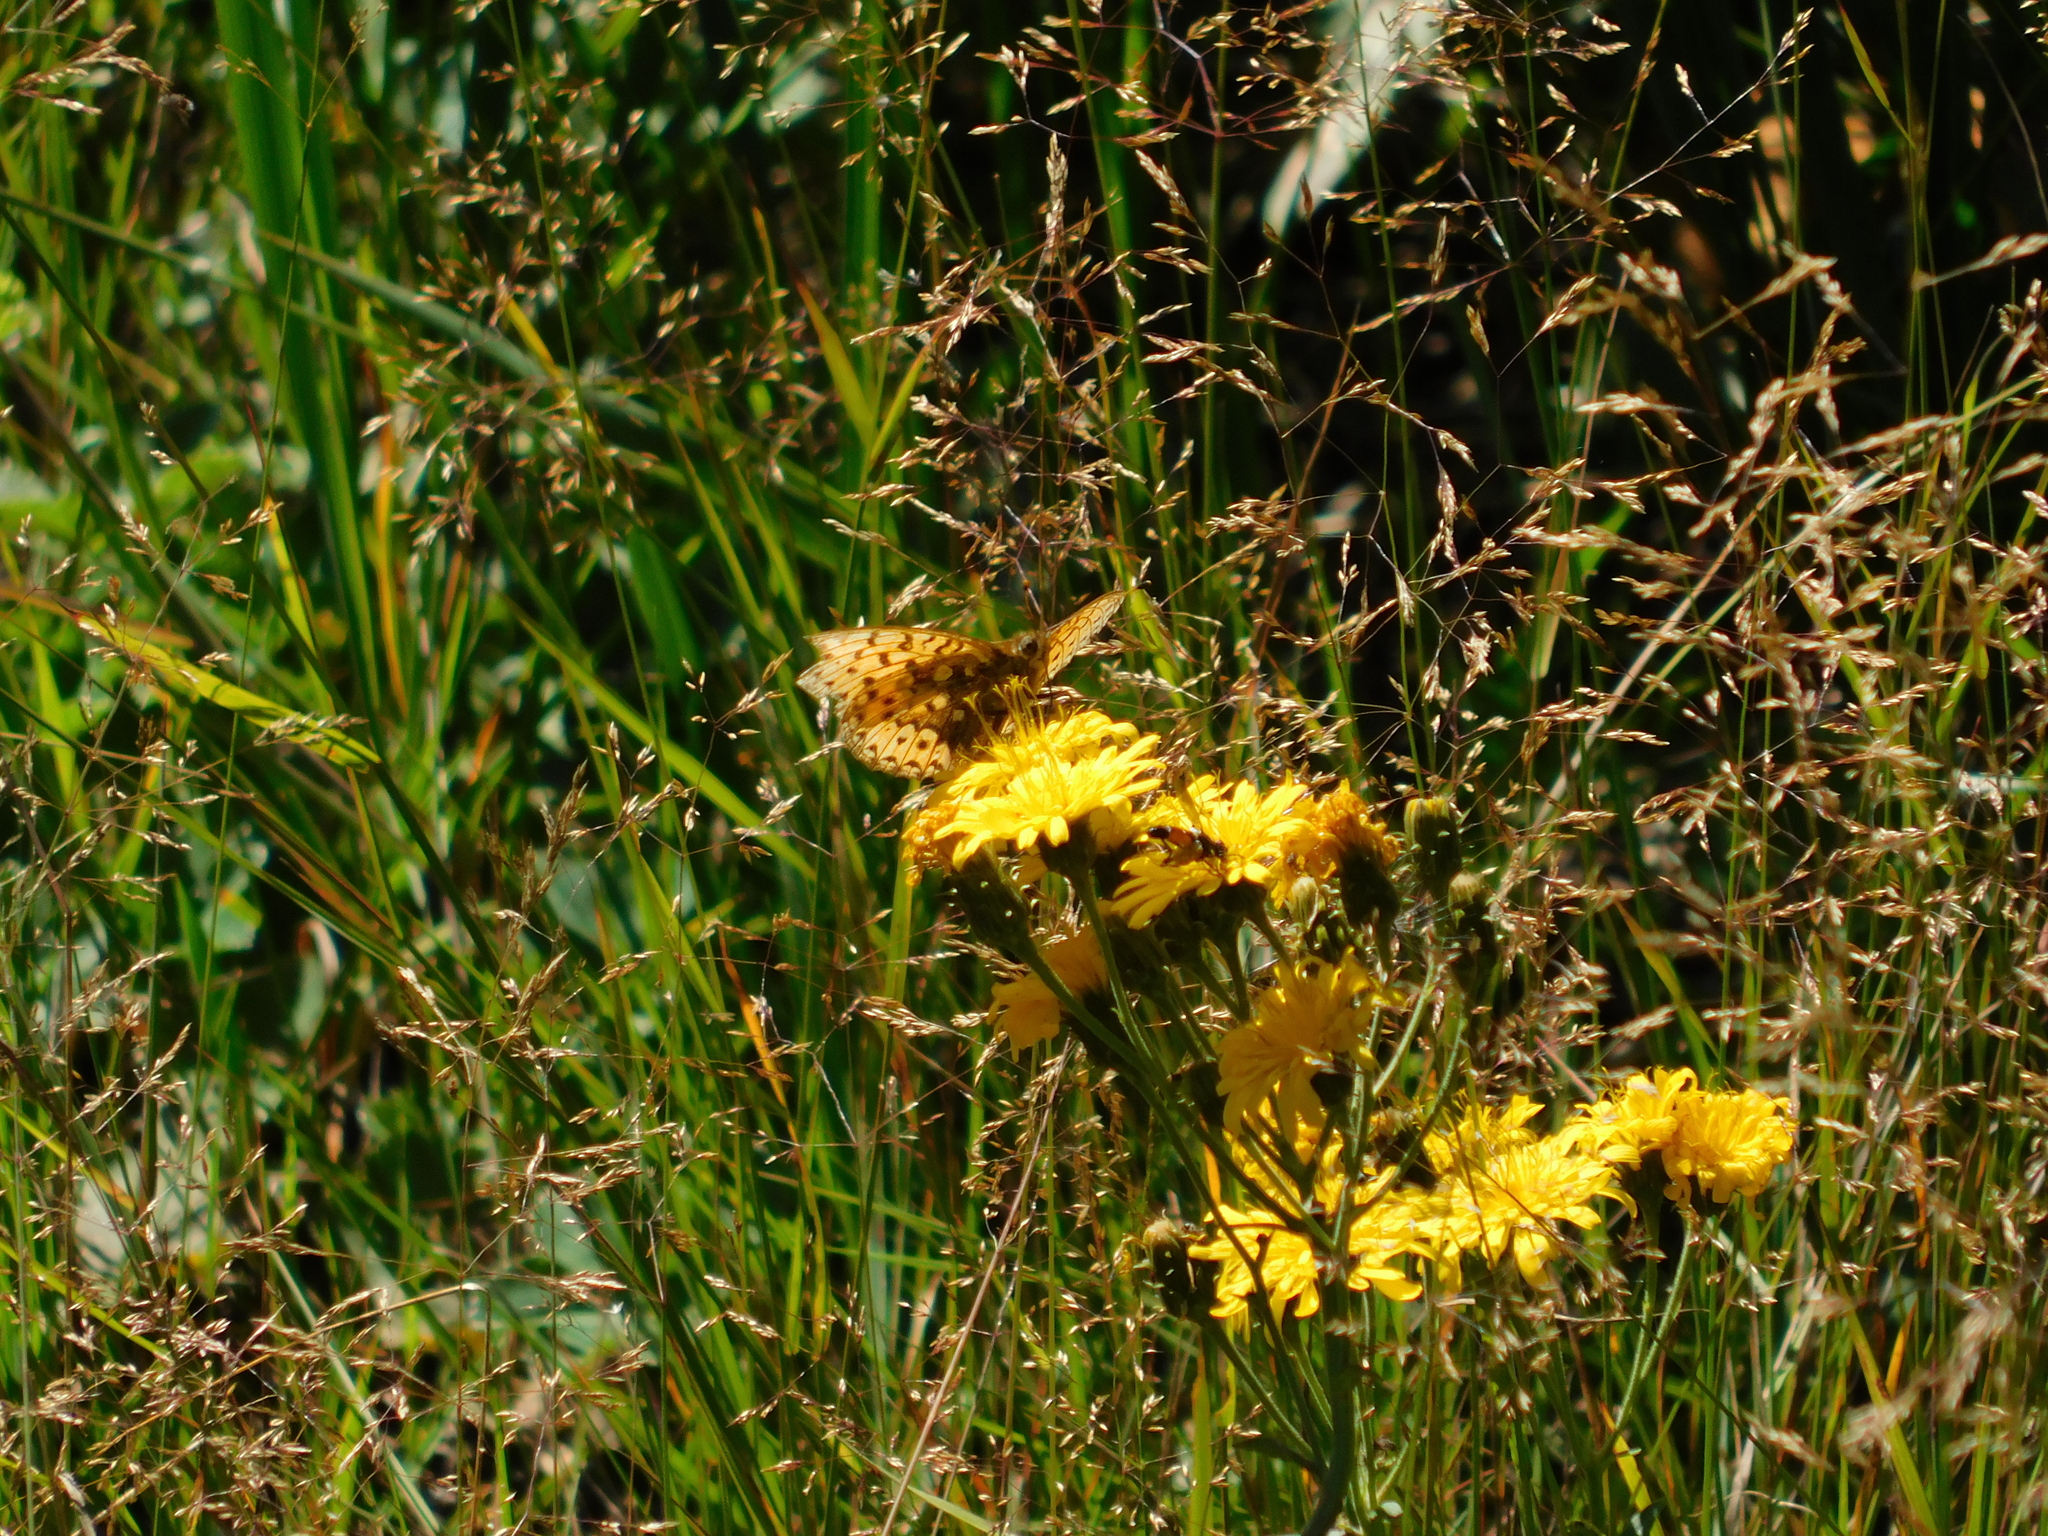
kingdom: Animalia
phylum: Arthropoda
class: Insecta
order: Lepidoptera
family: Nymphalidae
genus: Speyeria
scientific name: Speyeria aglaja
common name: Dark green fritillary
